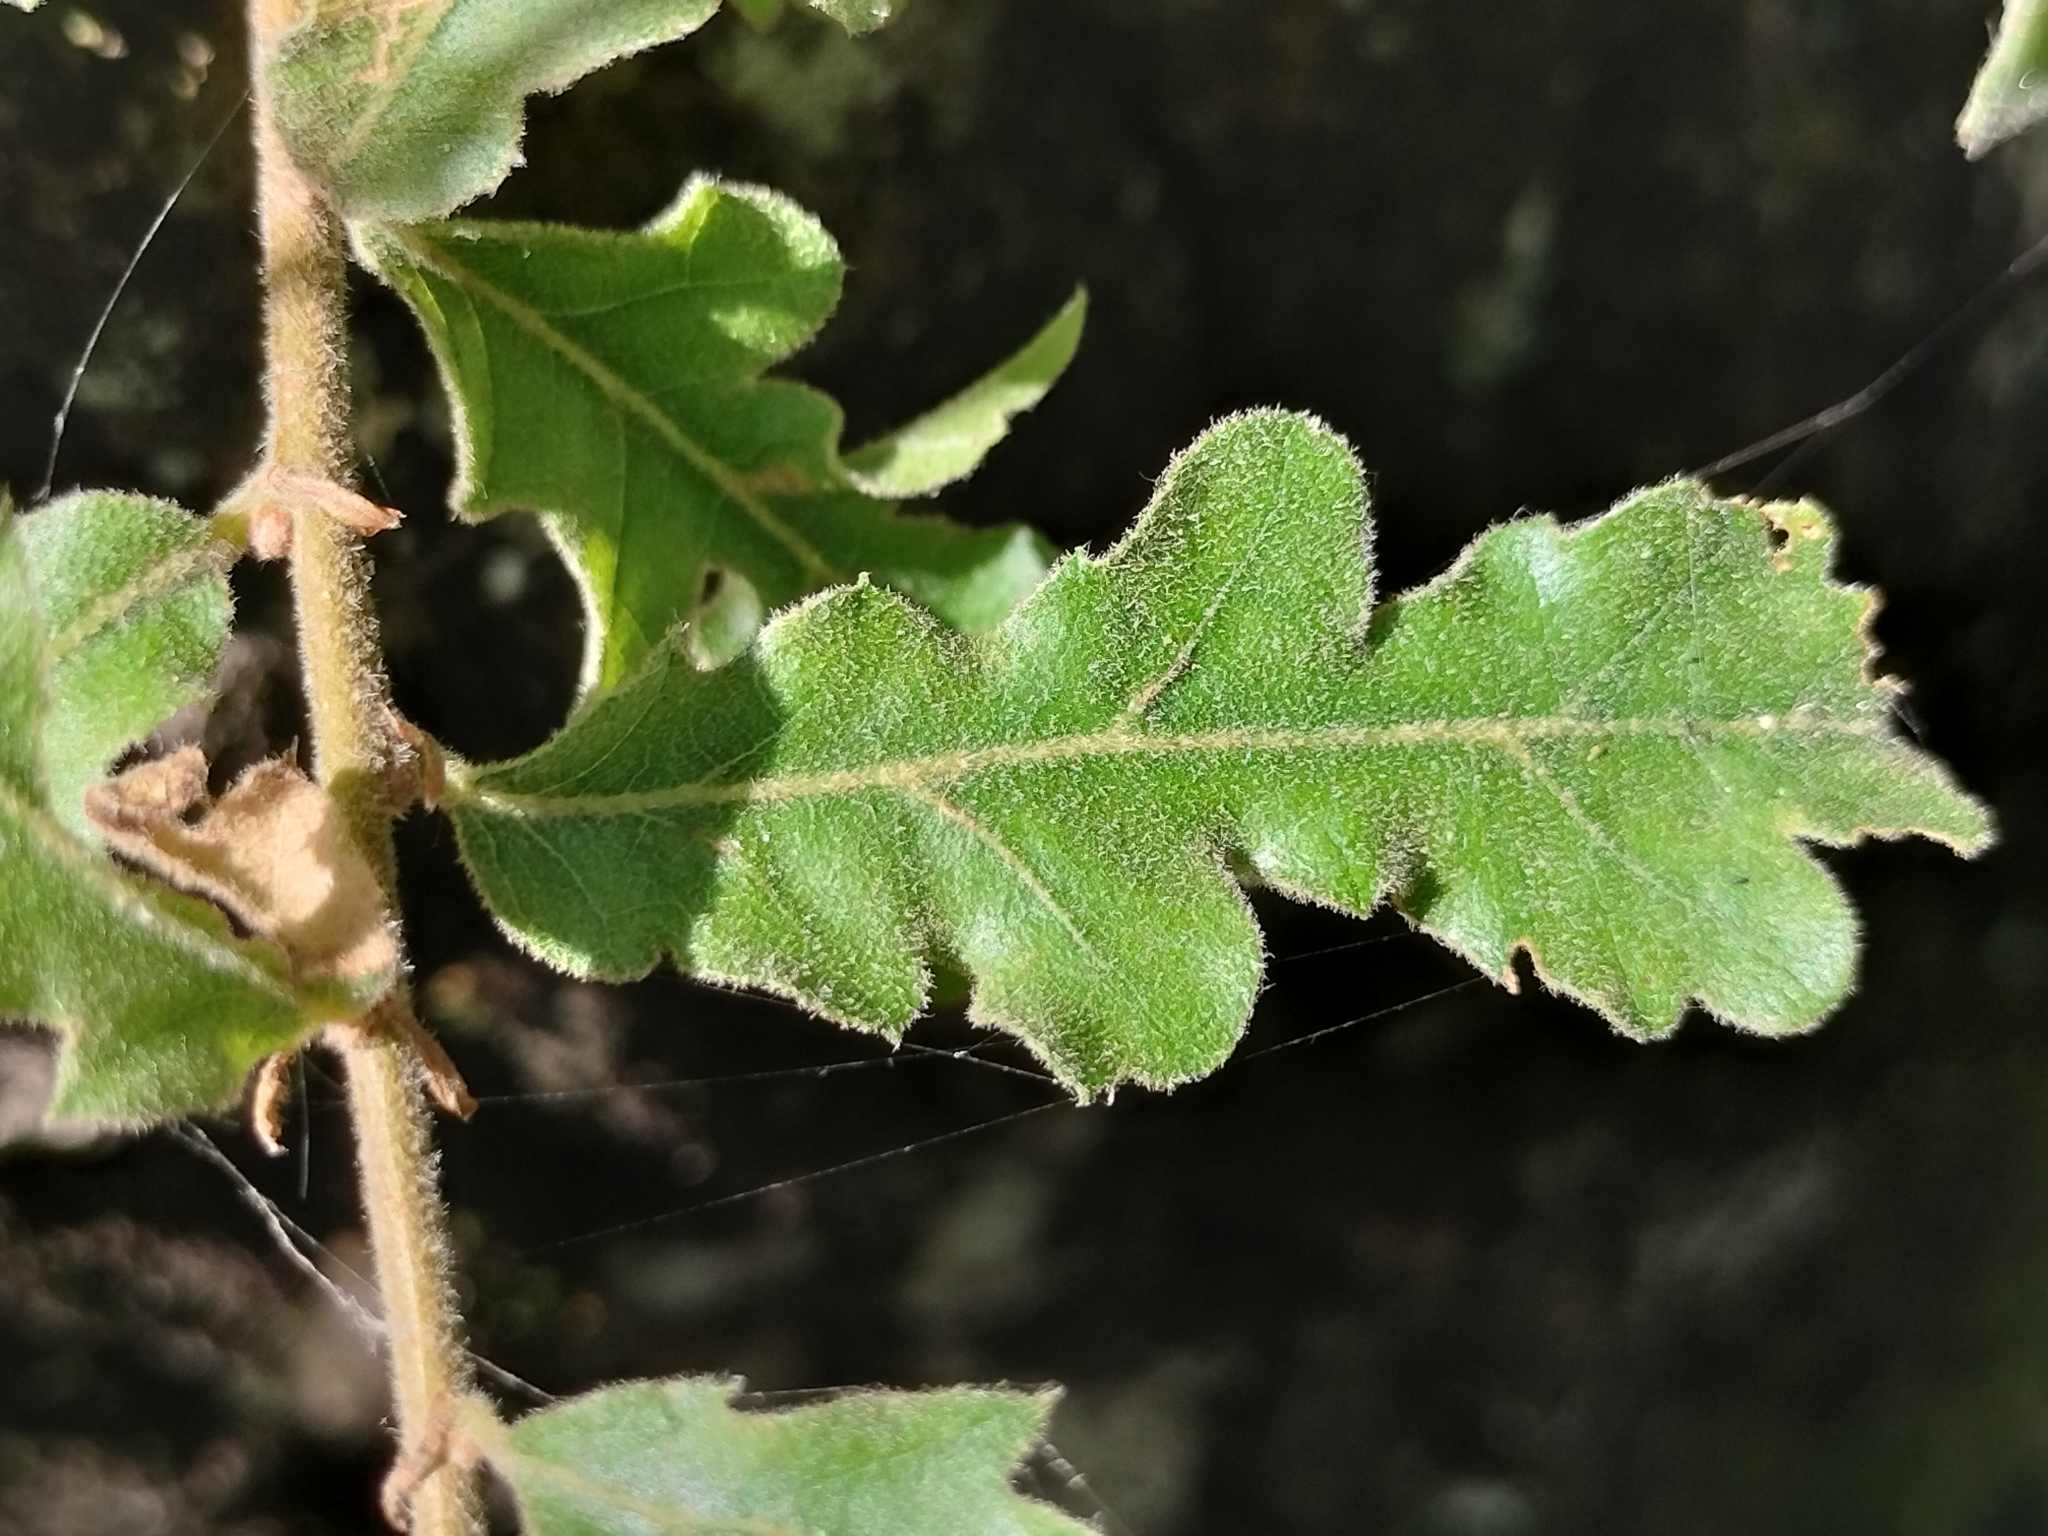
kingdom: Plantae
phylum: Tracheophyta
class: Magnoliopsida
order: Fagales
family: Fagaceae
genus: Quercus
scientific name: Quercus cerris
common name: Turkey oak
